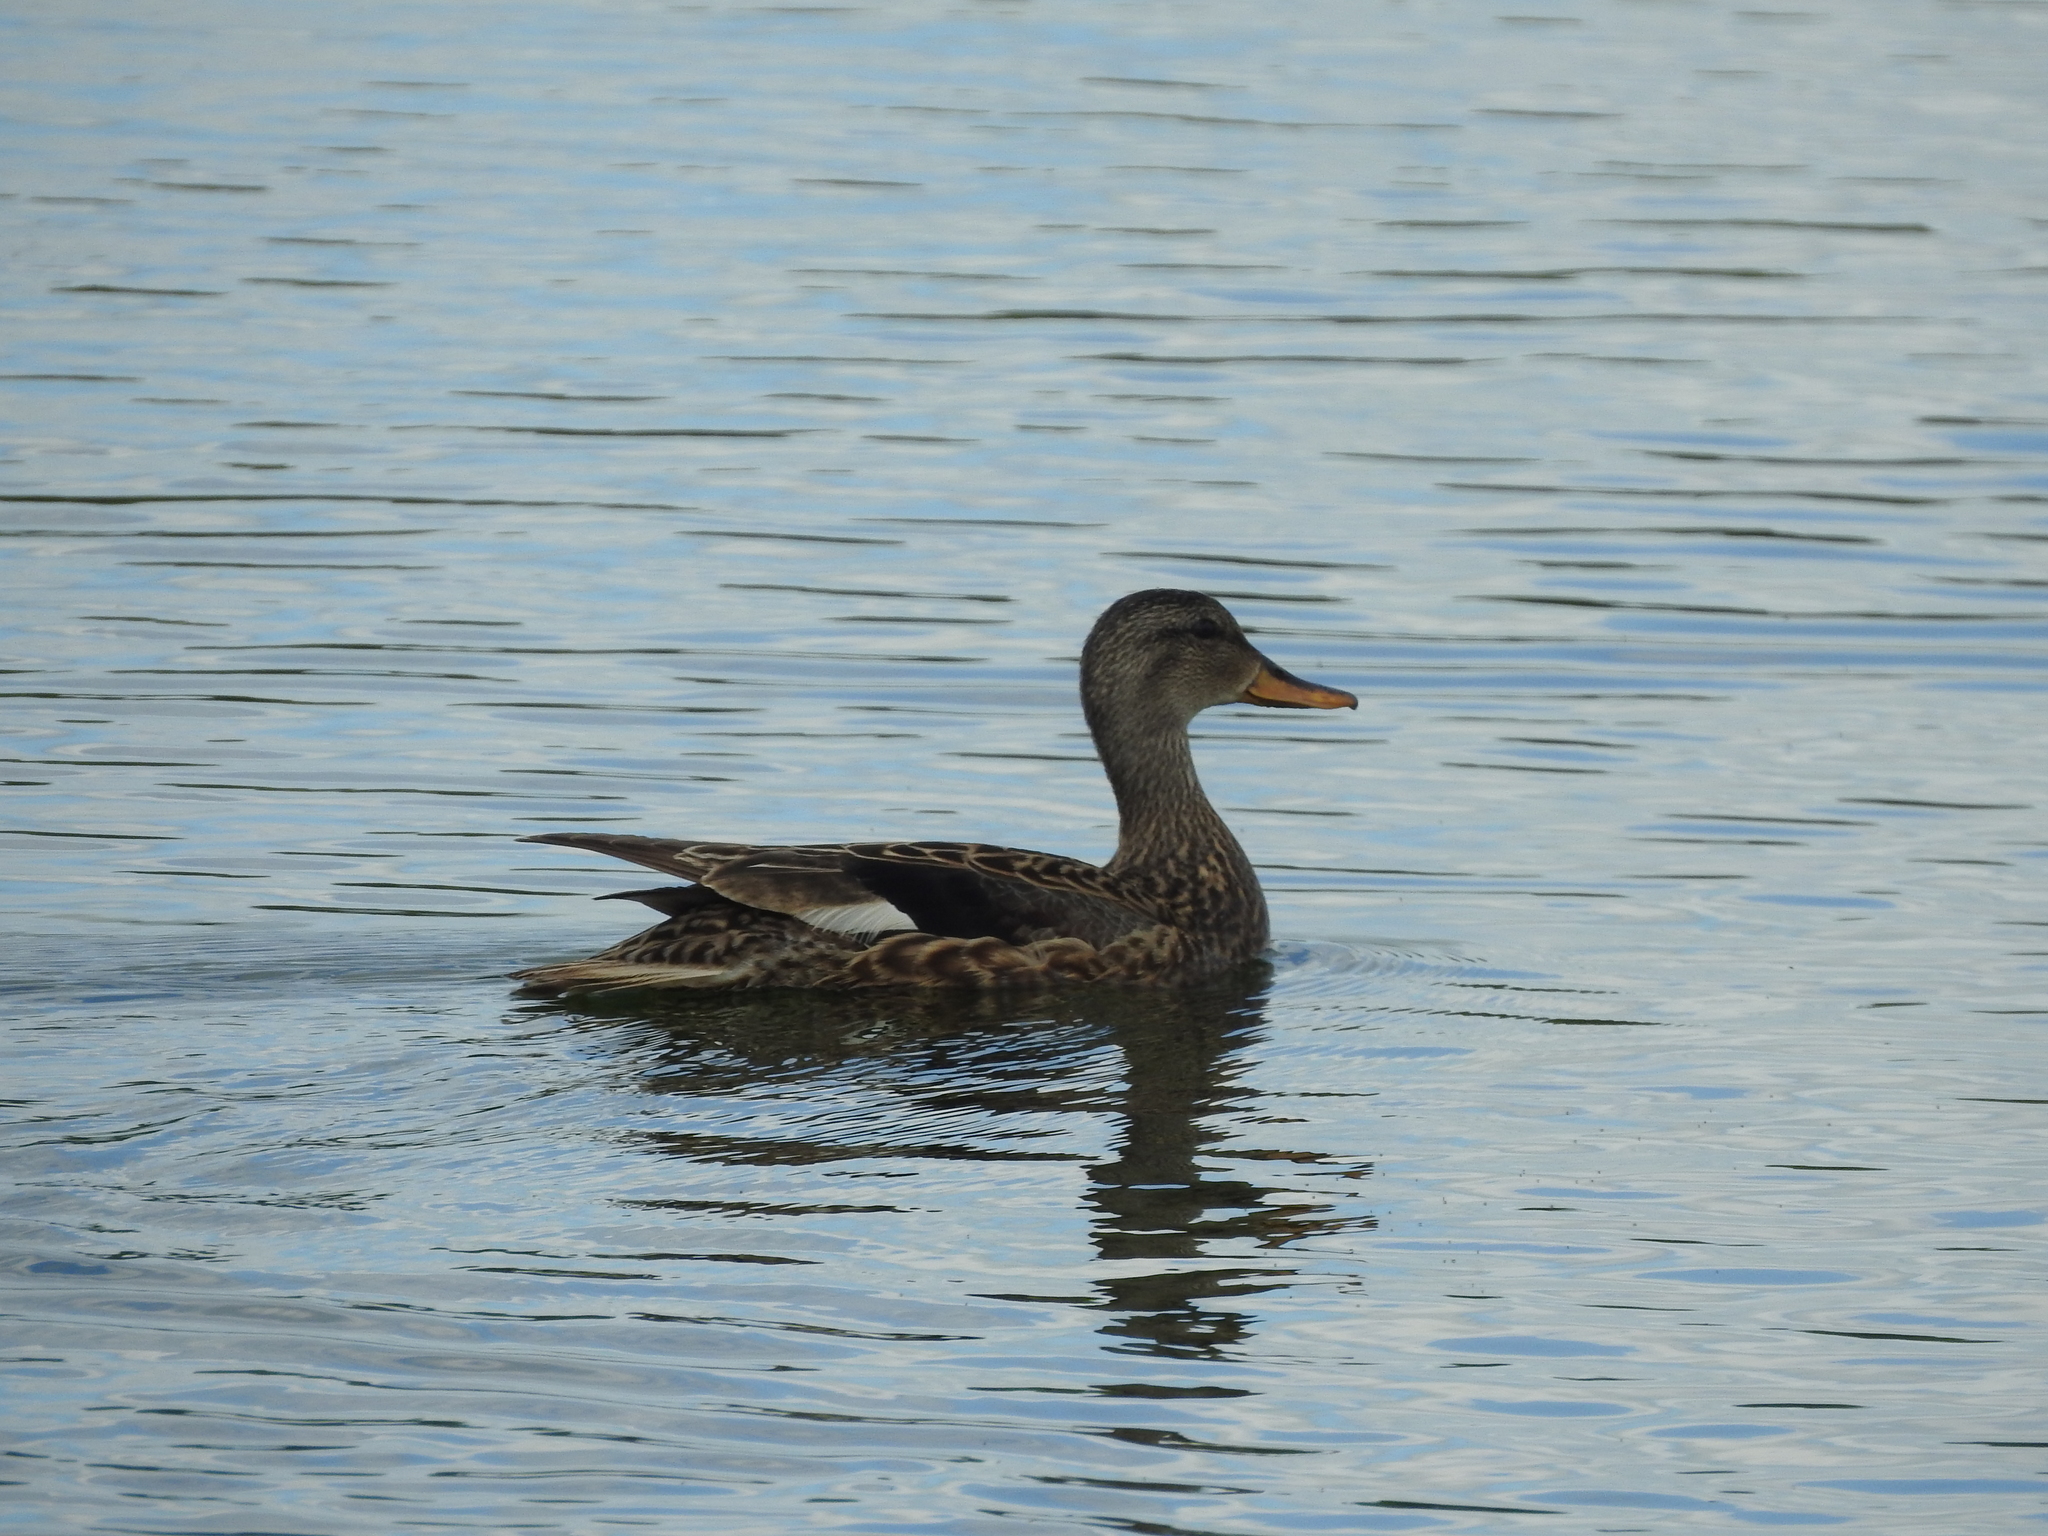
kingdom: Animalia
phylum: Chordata
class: Aves
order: Anseriformes
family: Anatidae
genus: Mareca
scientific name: Mareca strepera
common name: Gadwall
